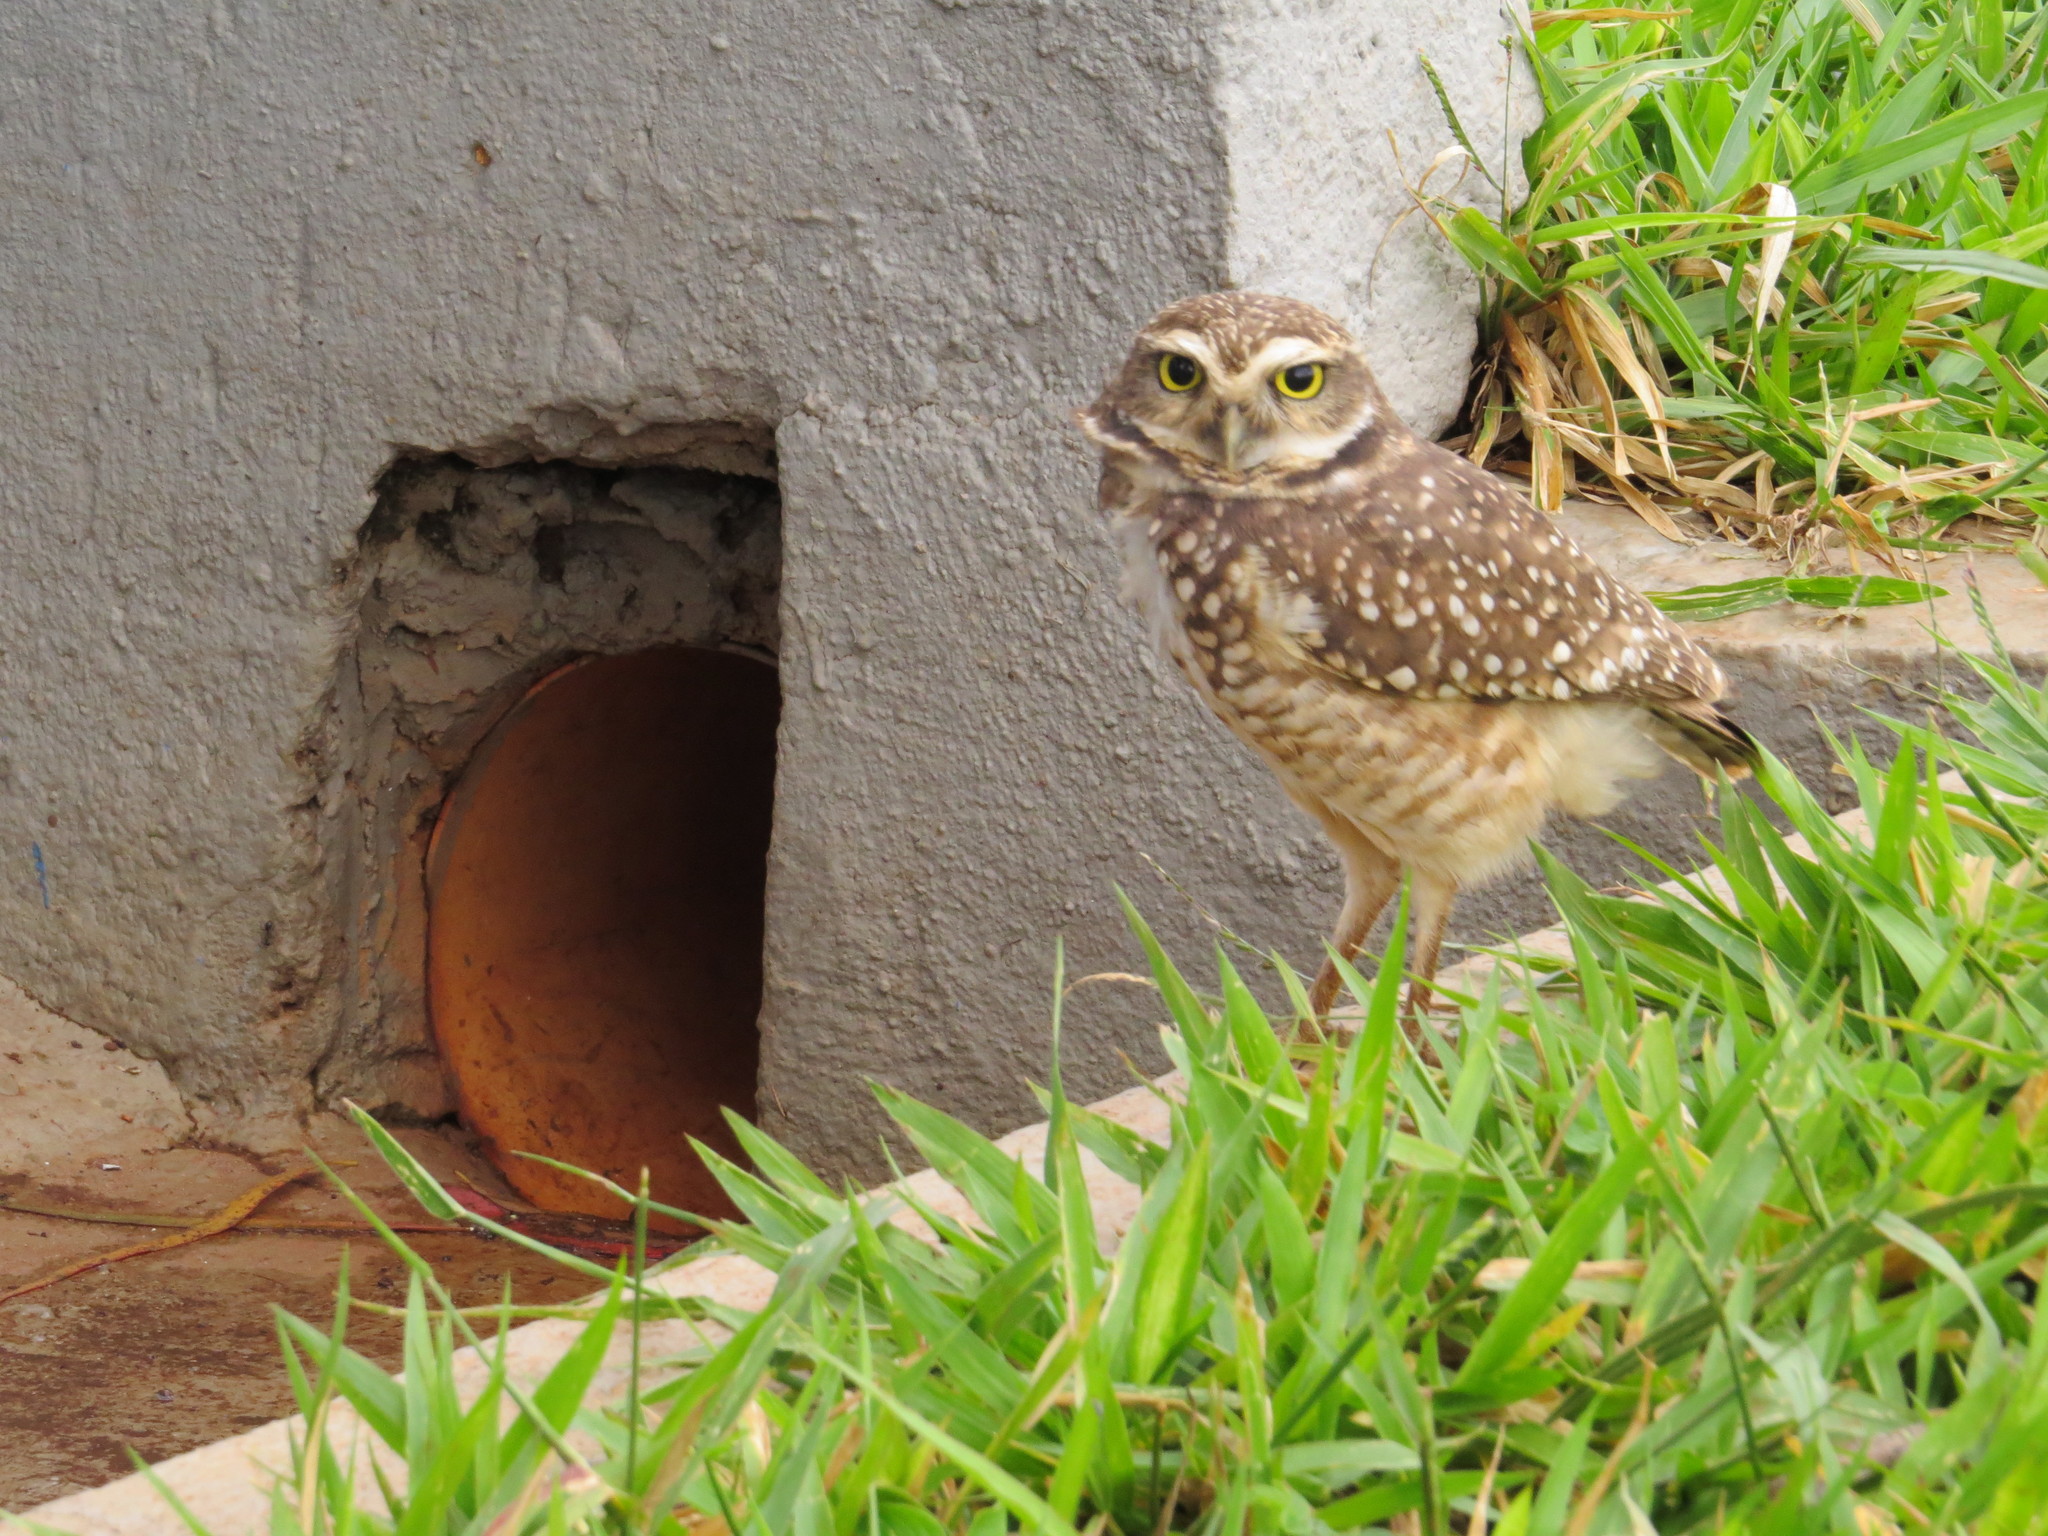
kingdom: Animalia
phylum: Chordata
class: Aves
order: Strigiformes
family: Strigidae
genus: Athene
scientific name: Athene cunicularia
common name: Burrowing owl
